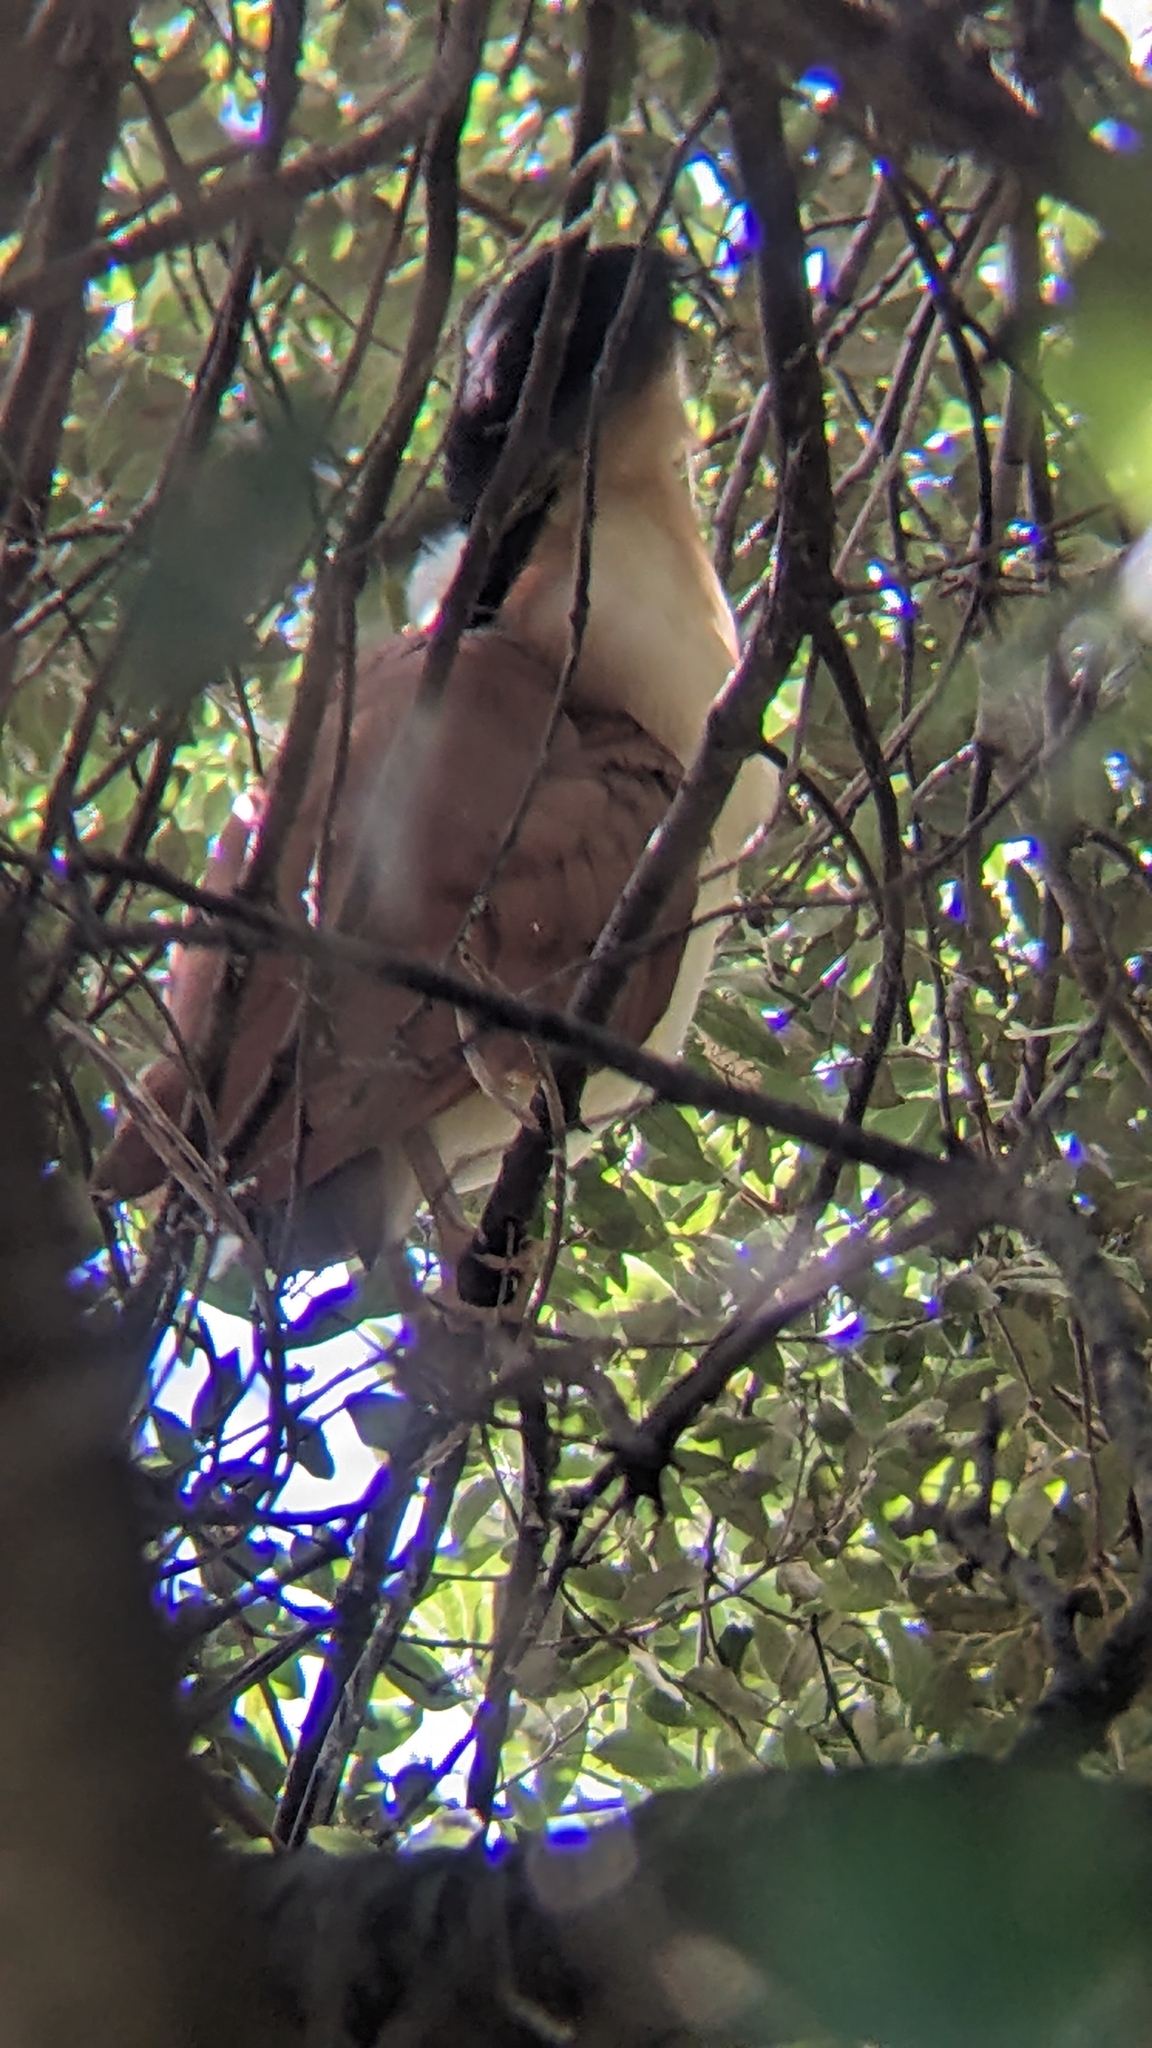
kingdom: Animalia
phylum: Chordata
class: Aves
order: Pelecaniformes
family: Ardeidae
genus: Nycticorax
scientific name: Nycticorax caledonicus
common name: Rufous night-heron
